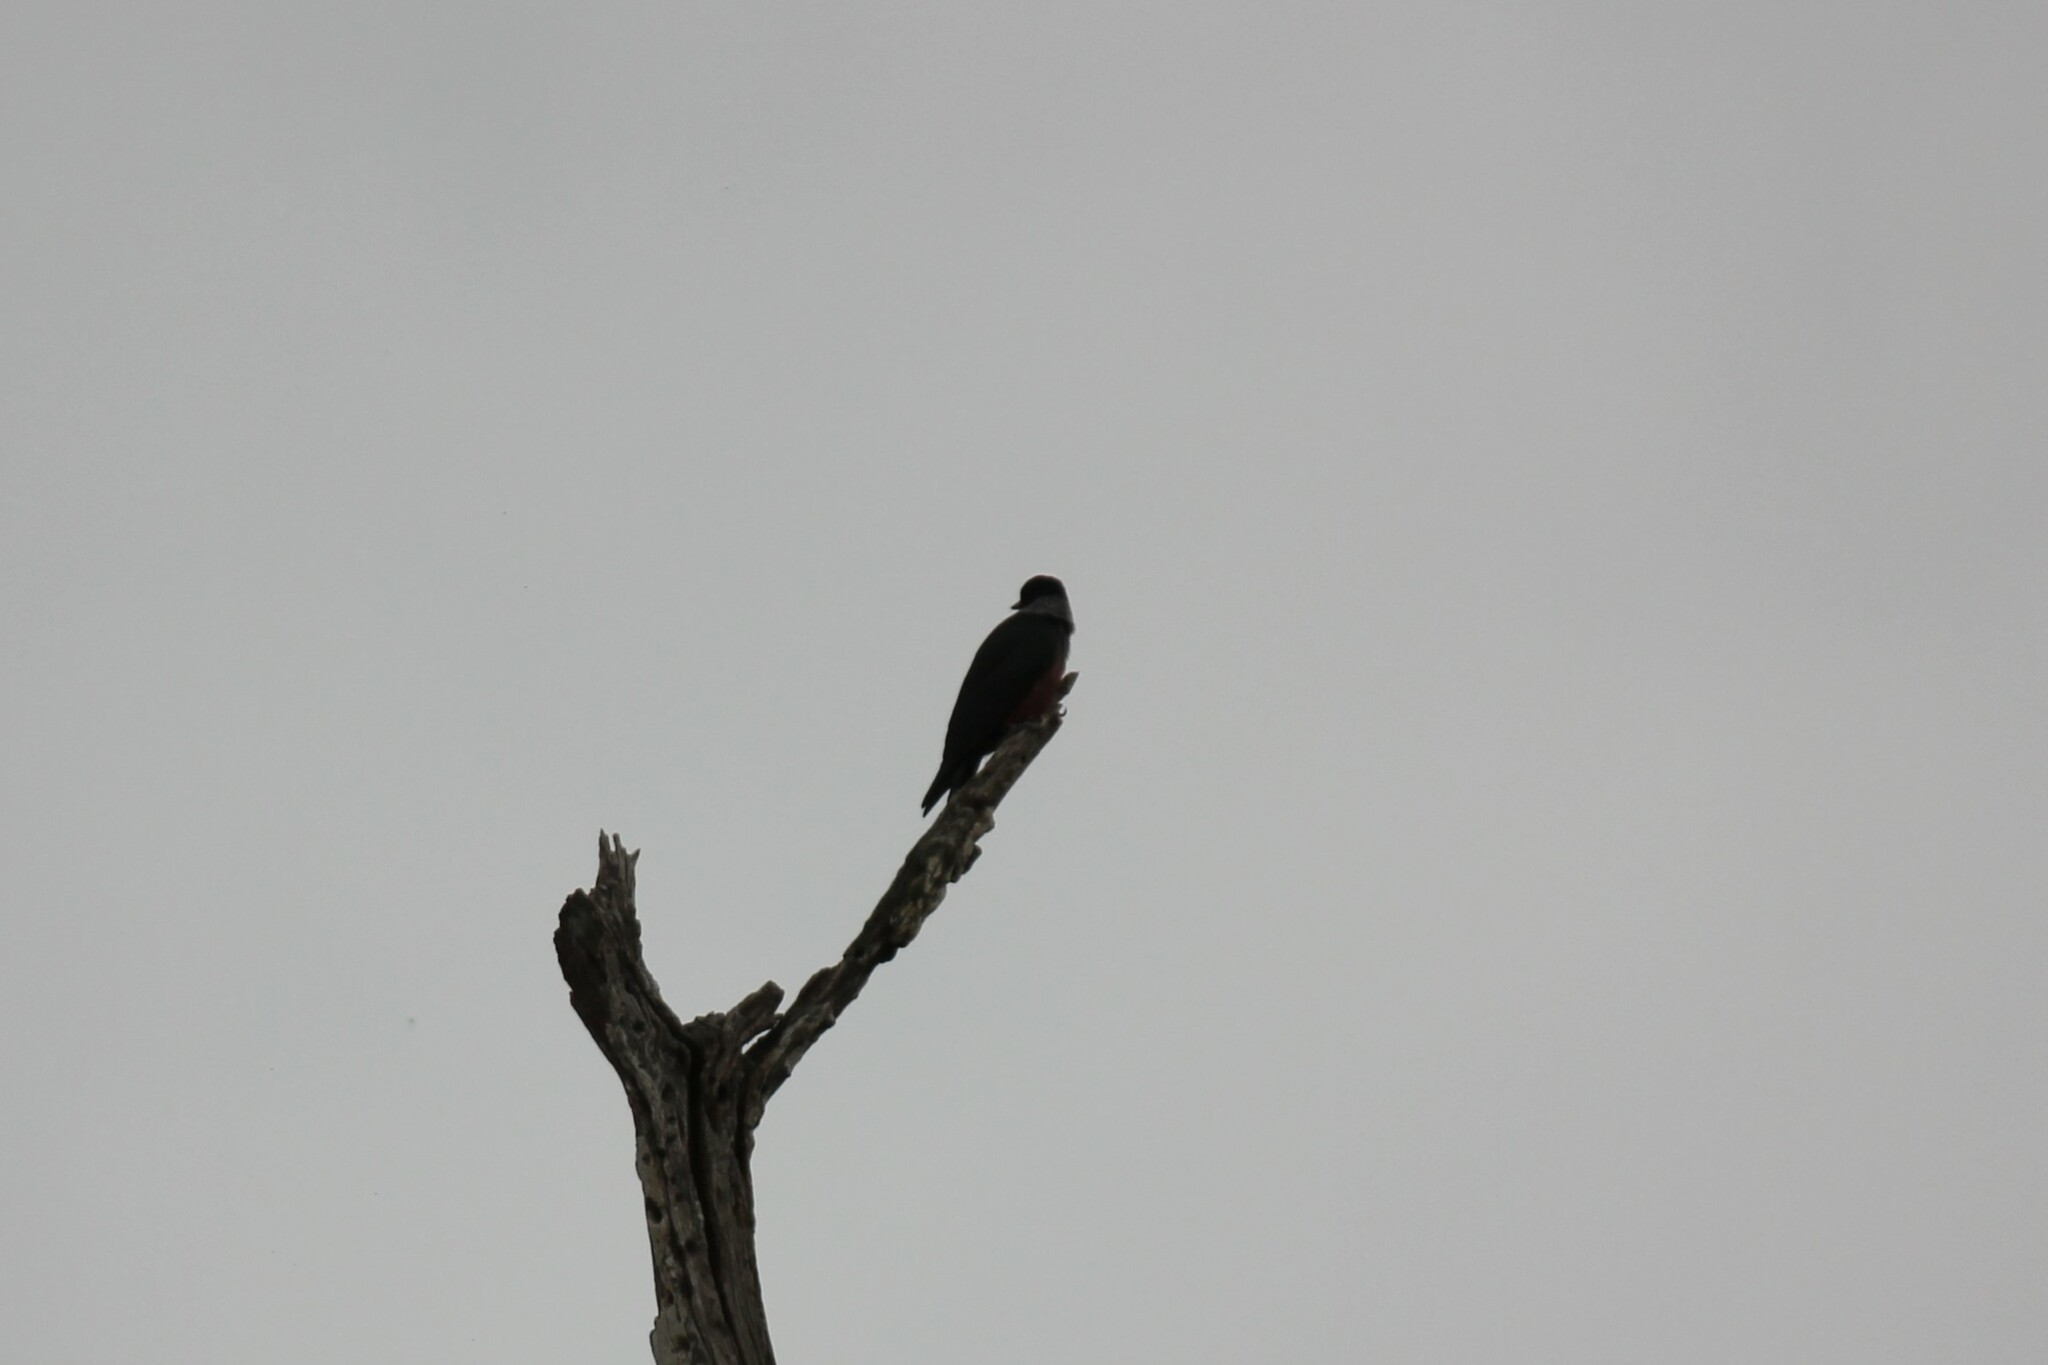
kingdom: Animalia
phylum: Chordata
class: Aves
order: Piciformes
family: Picidae
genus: Melanerpes
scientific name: Melanerpes lewis
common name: Lewis's woodpecker
